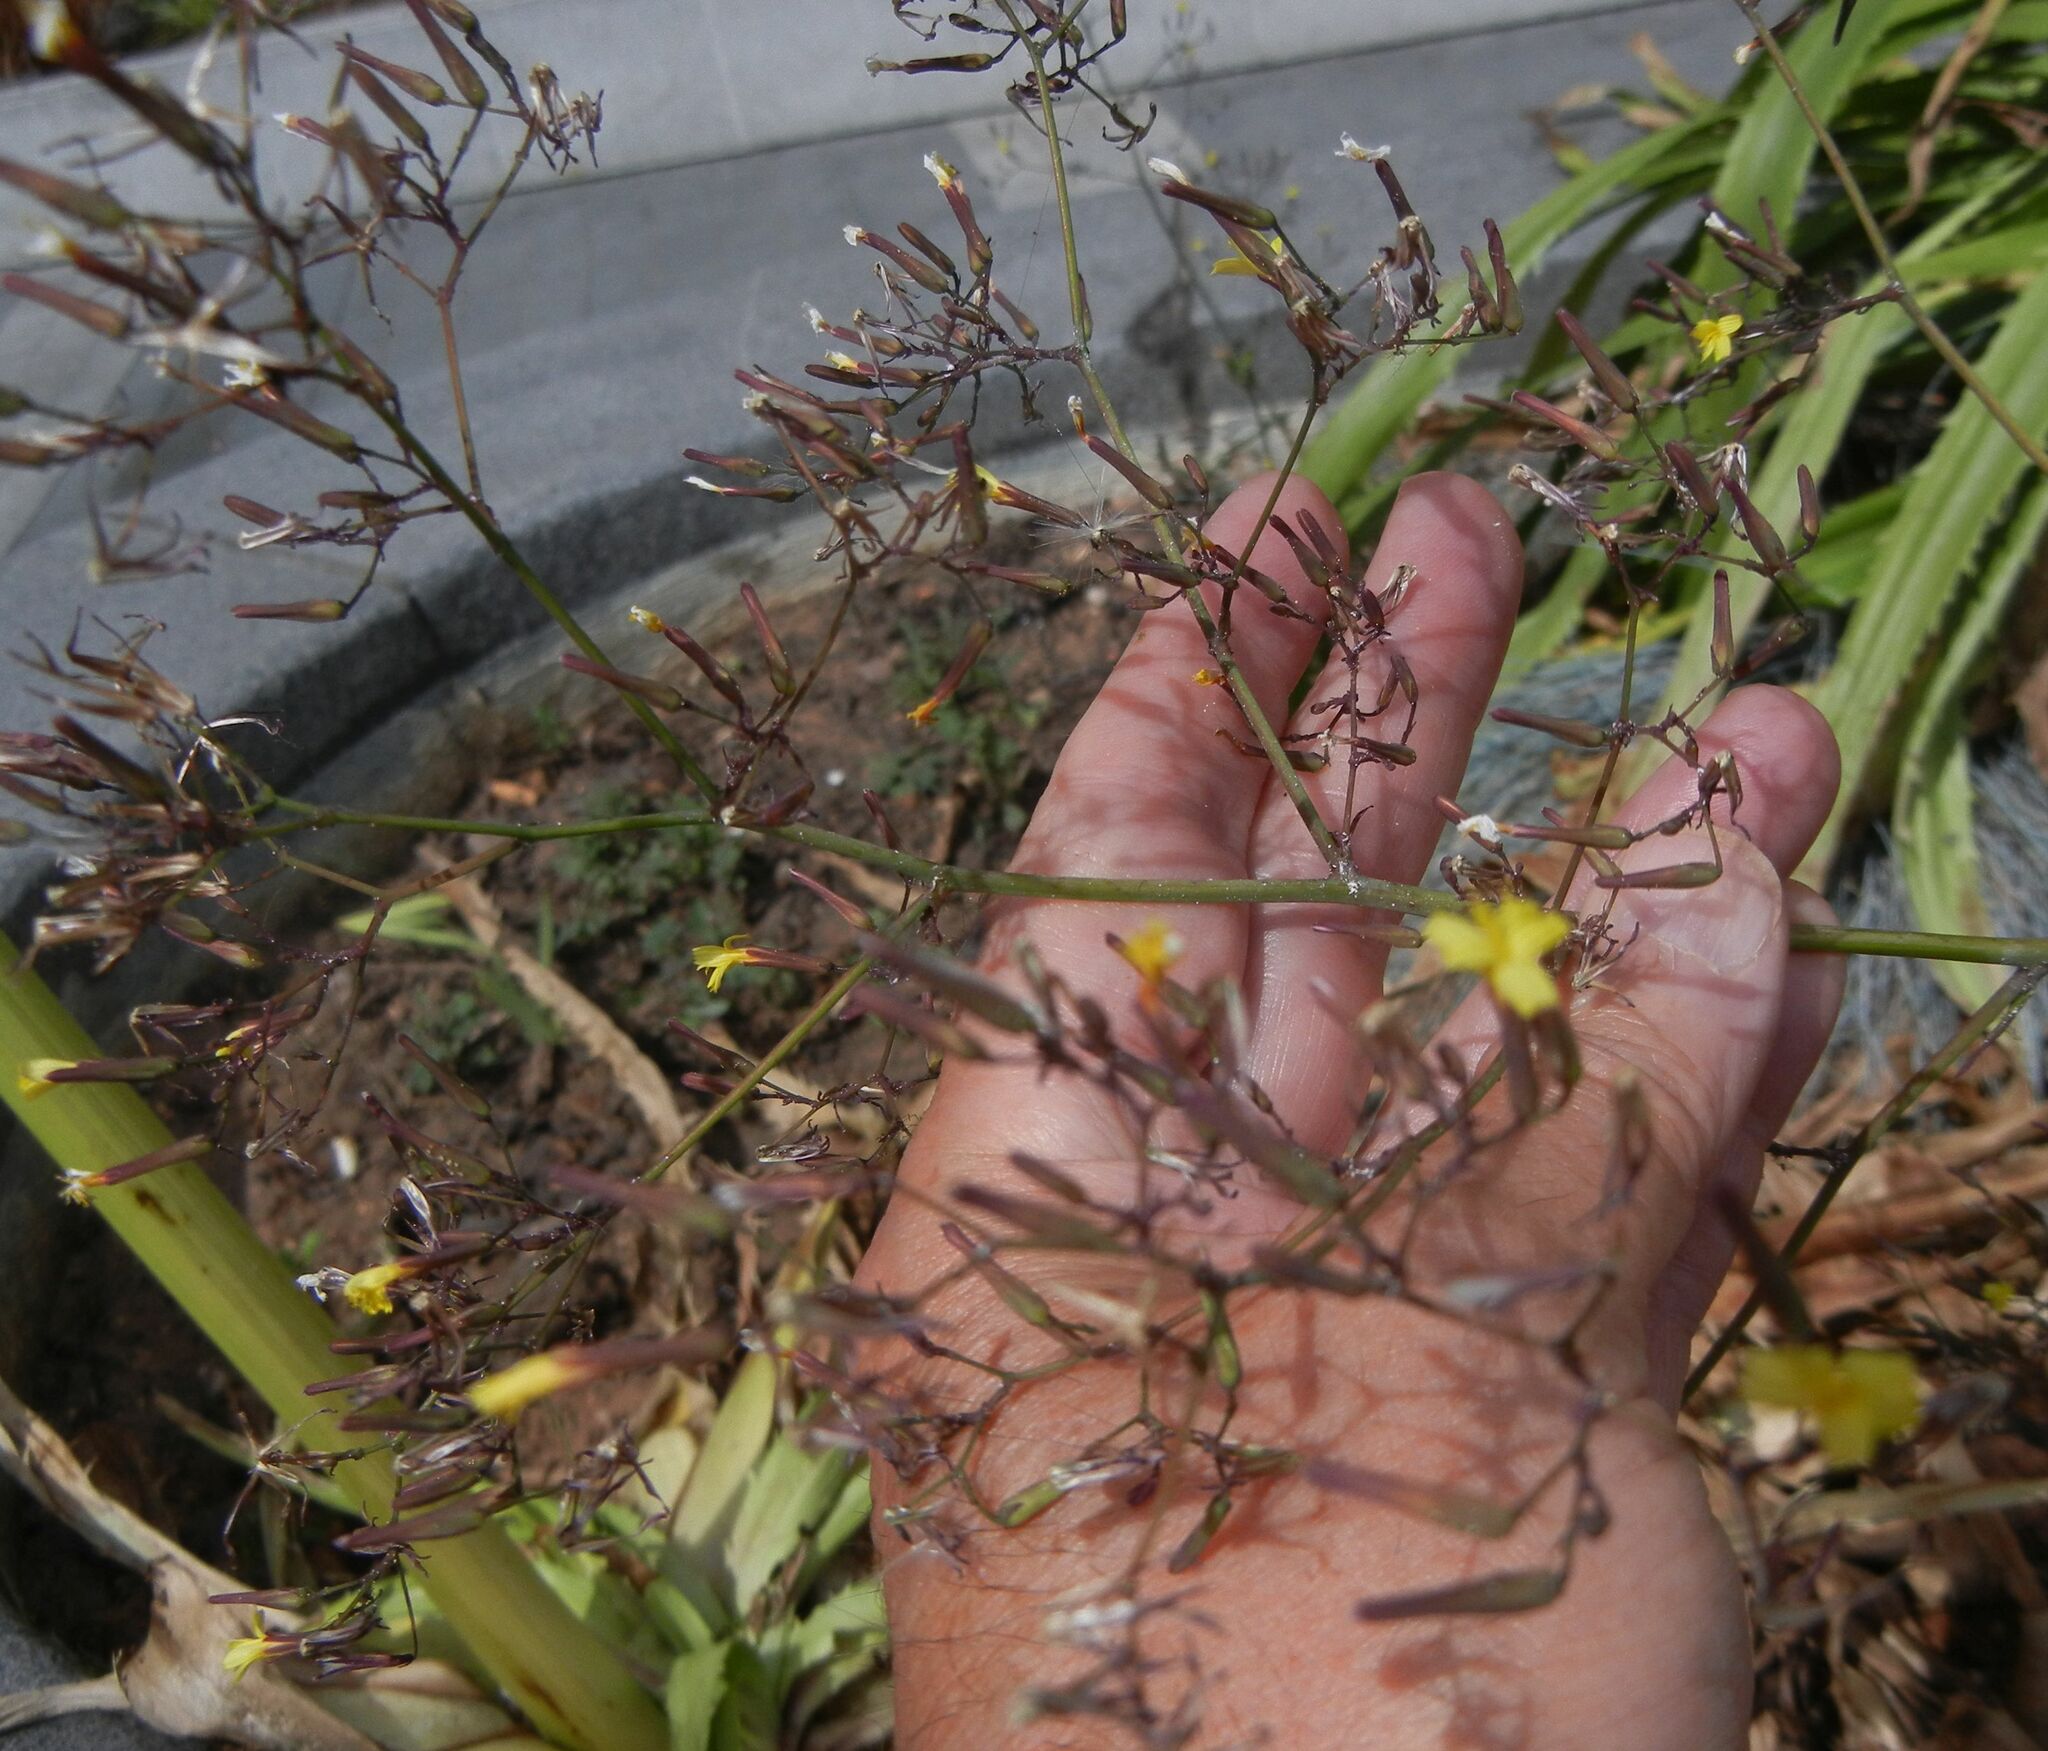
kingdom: Plantae
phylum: Tracheophyta
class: Magnoliopsida
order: Asterales
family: Asteraceae
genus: Mycelis
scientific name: Mycelis muralis
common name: Wall lettuce
